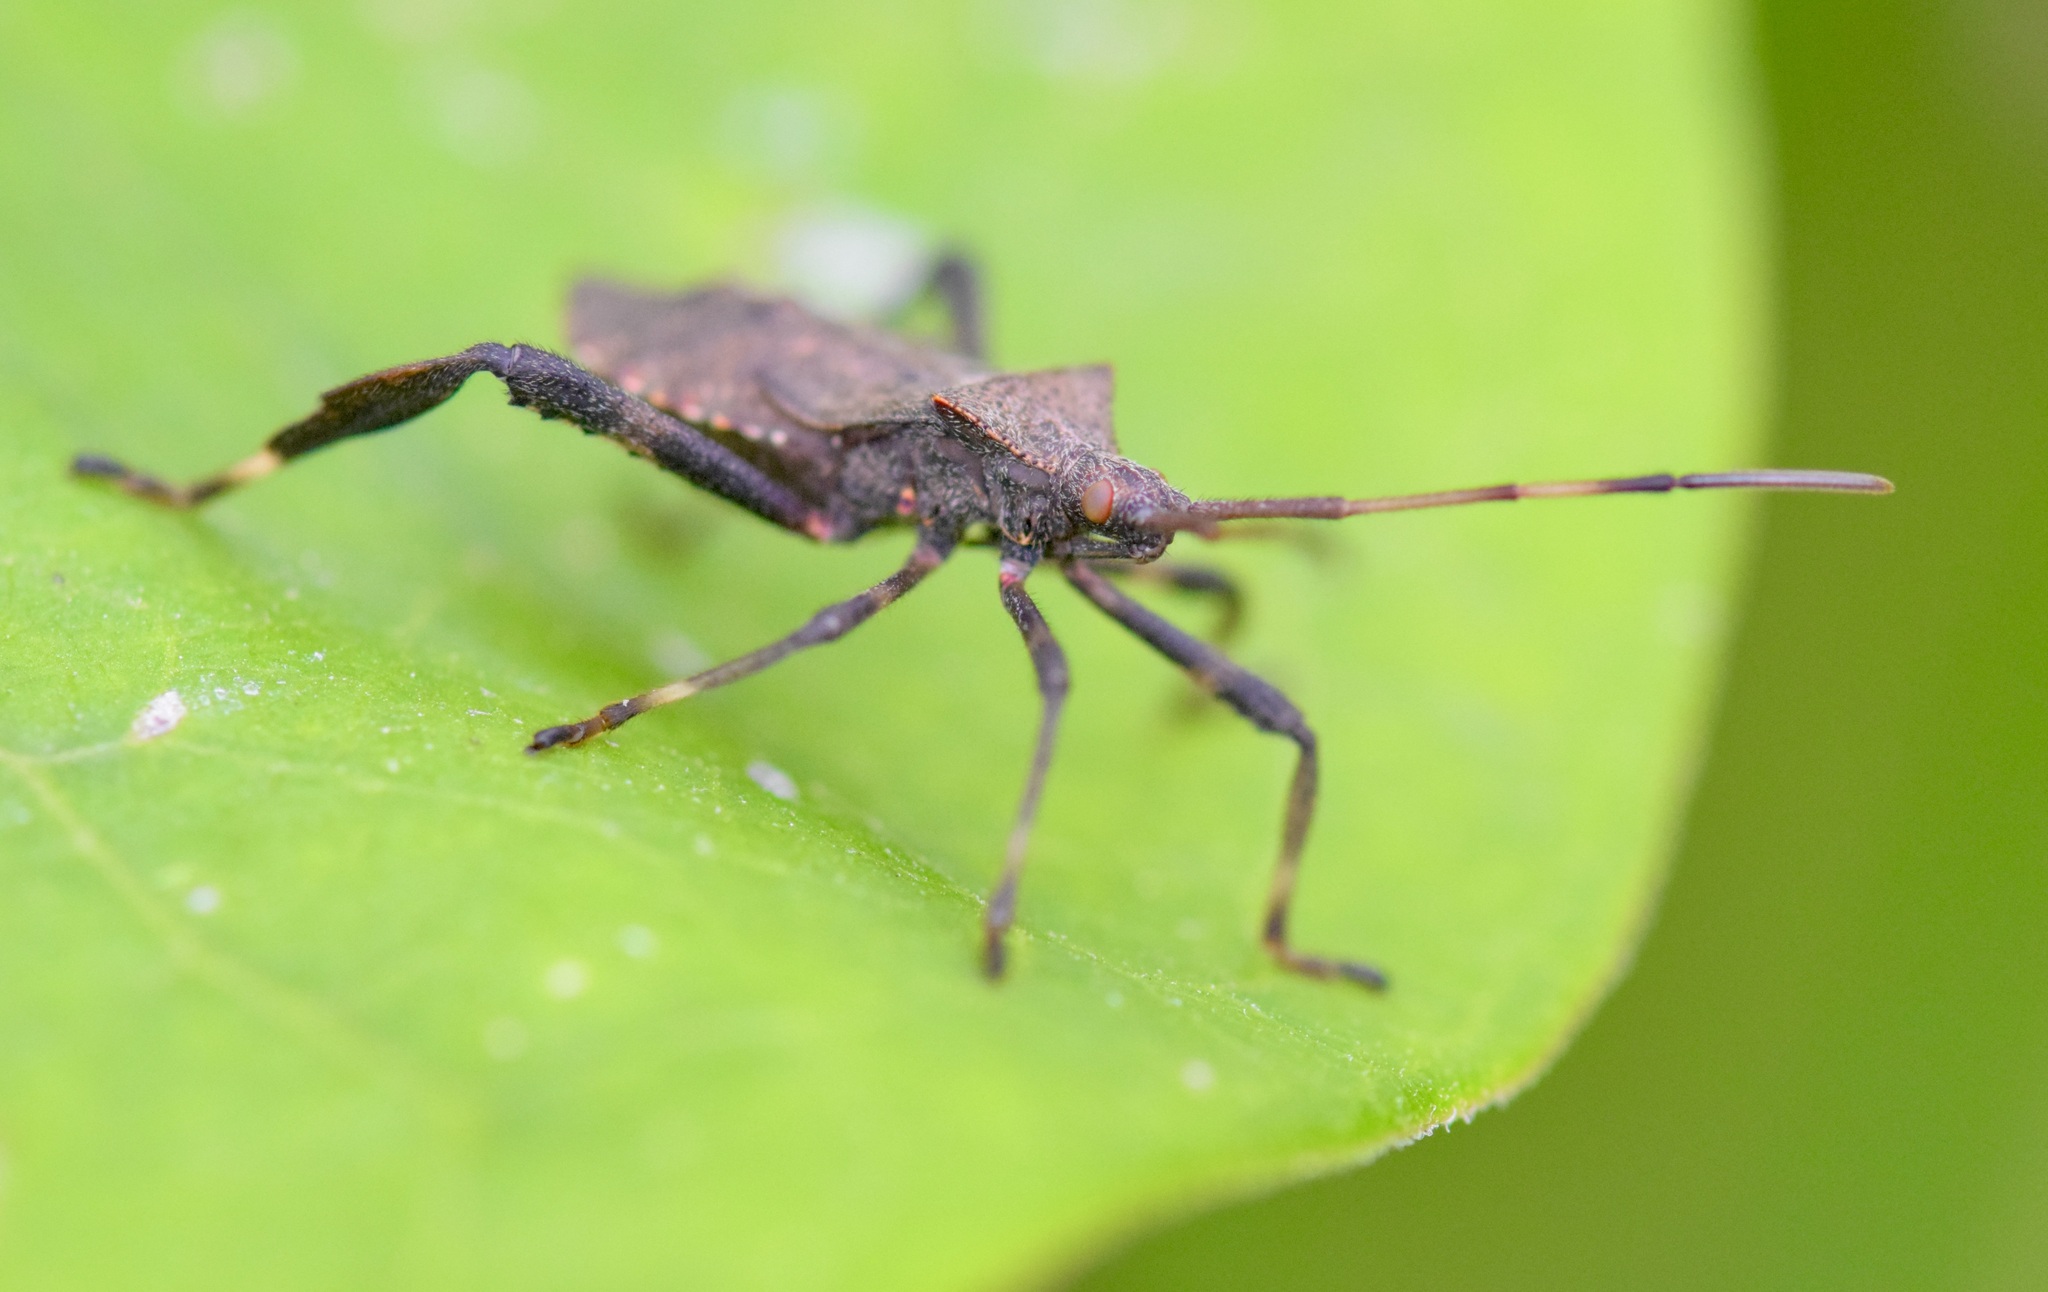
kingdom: Animalia
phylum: Arthropoda
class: Insecta
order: Hemiptera
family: Coreidae
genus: Acanthocephala
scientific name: Acanthocephala terminalis
